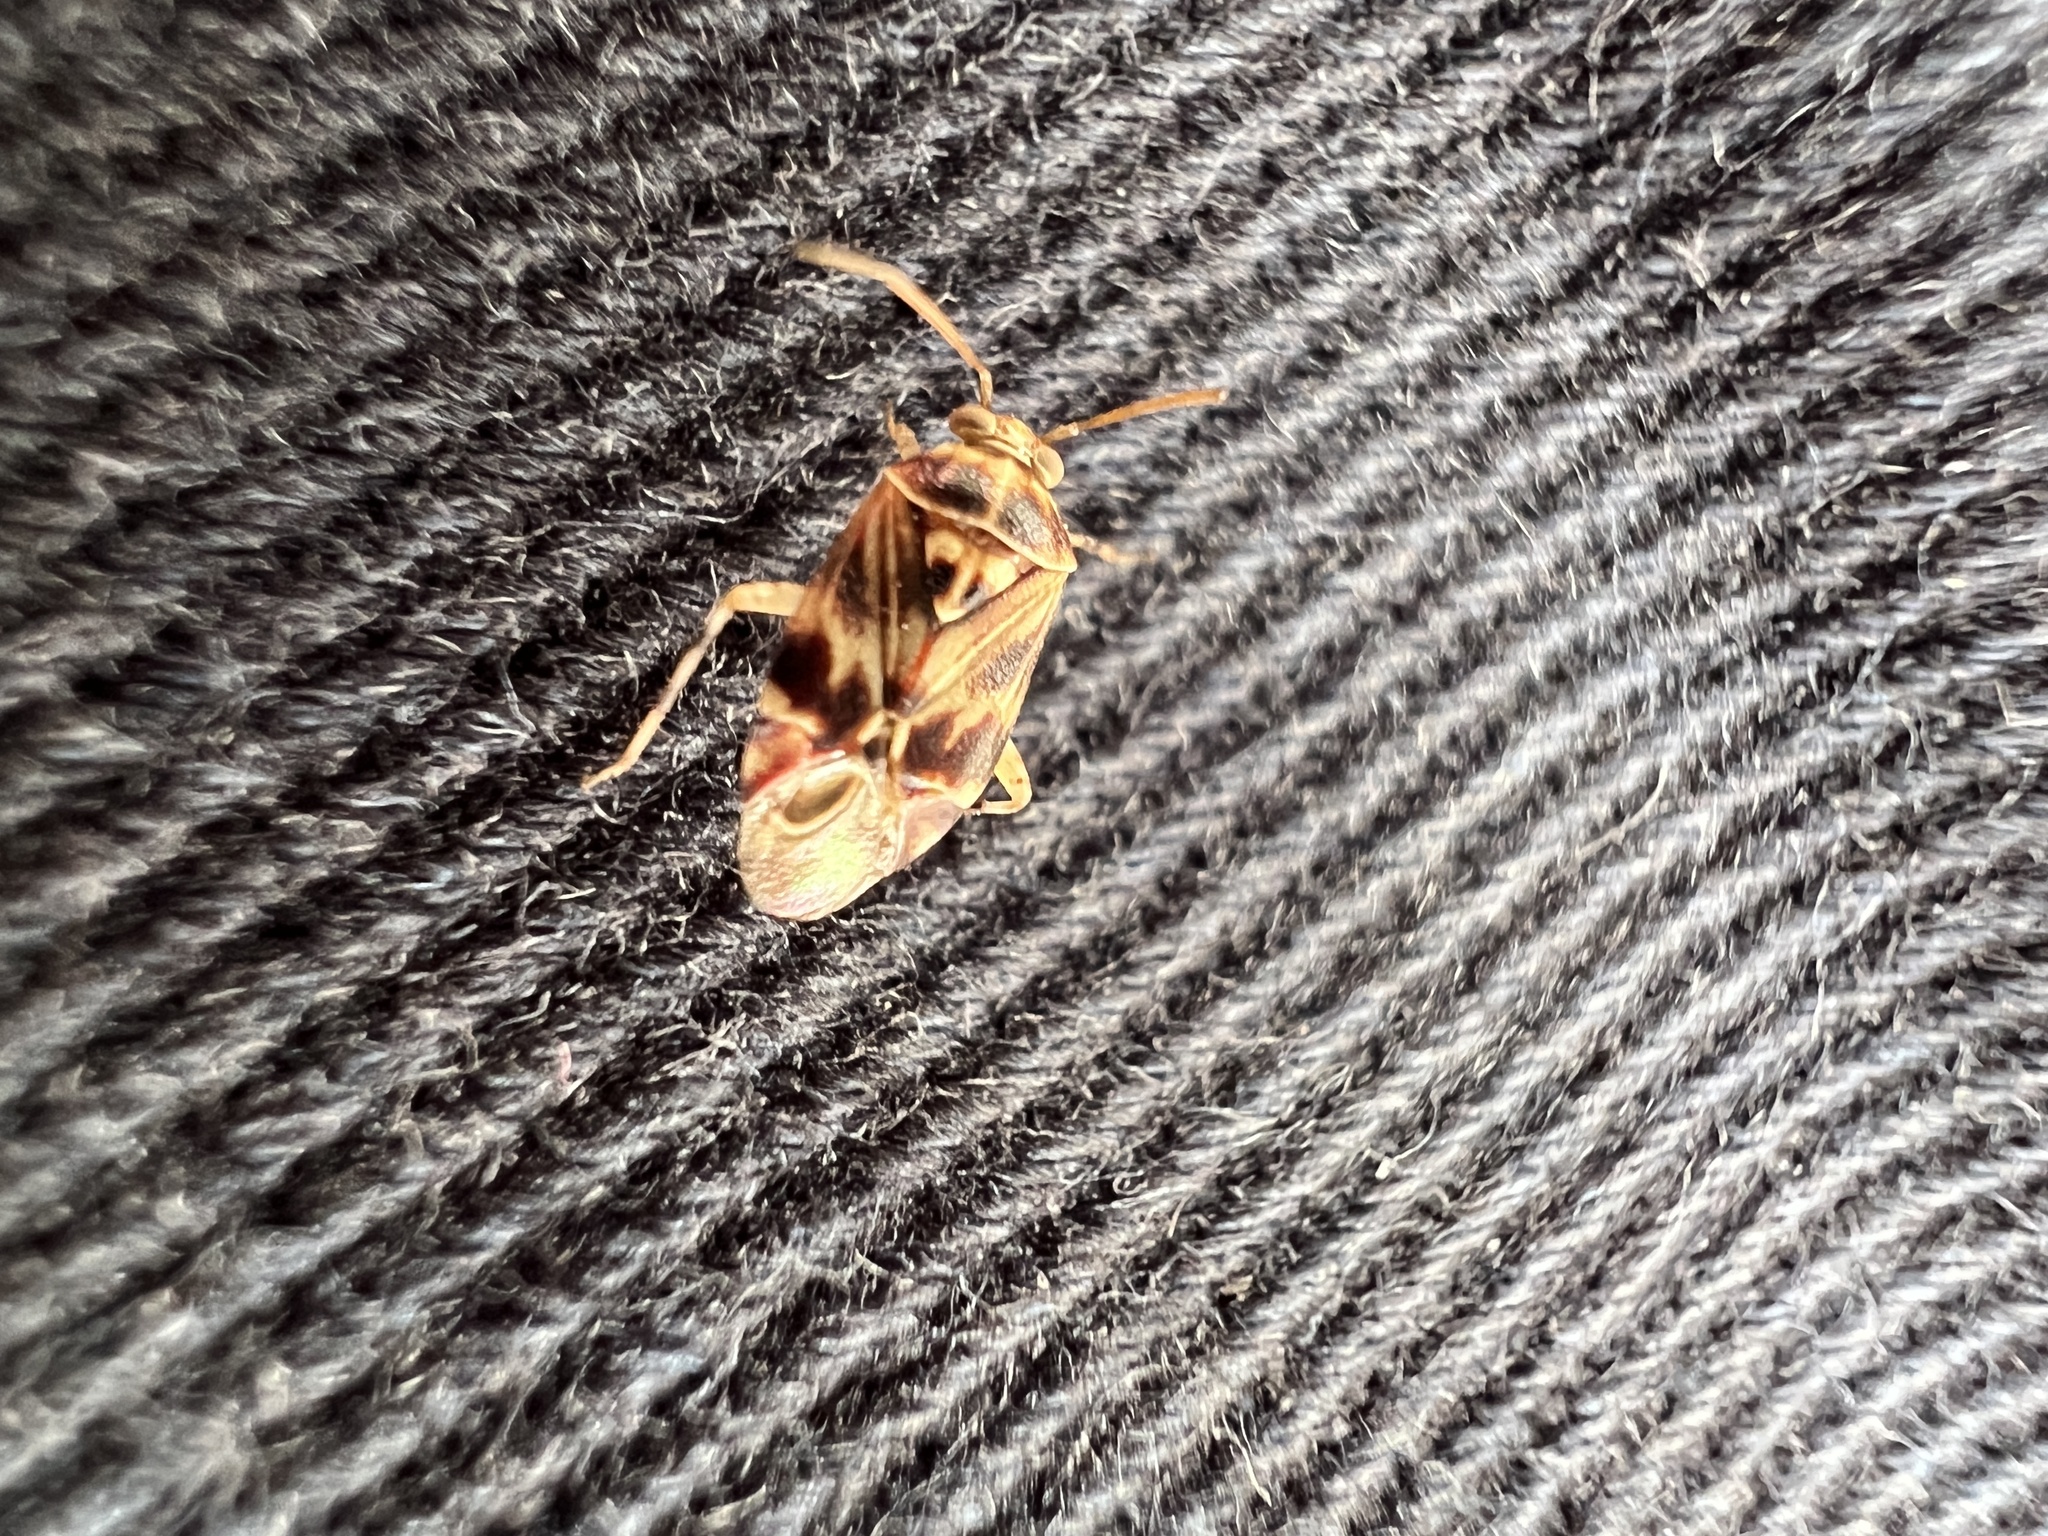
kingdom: Animalia
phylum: Arthropoda
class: Insecta
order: Hemiptera
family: Miridae
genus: Tropidosteptes
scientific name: Tropidosteptes quercicola
